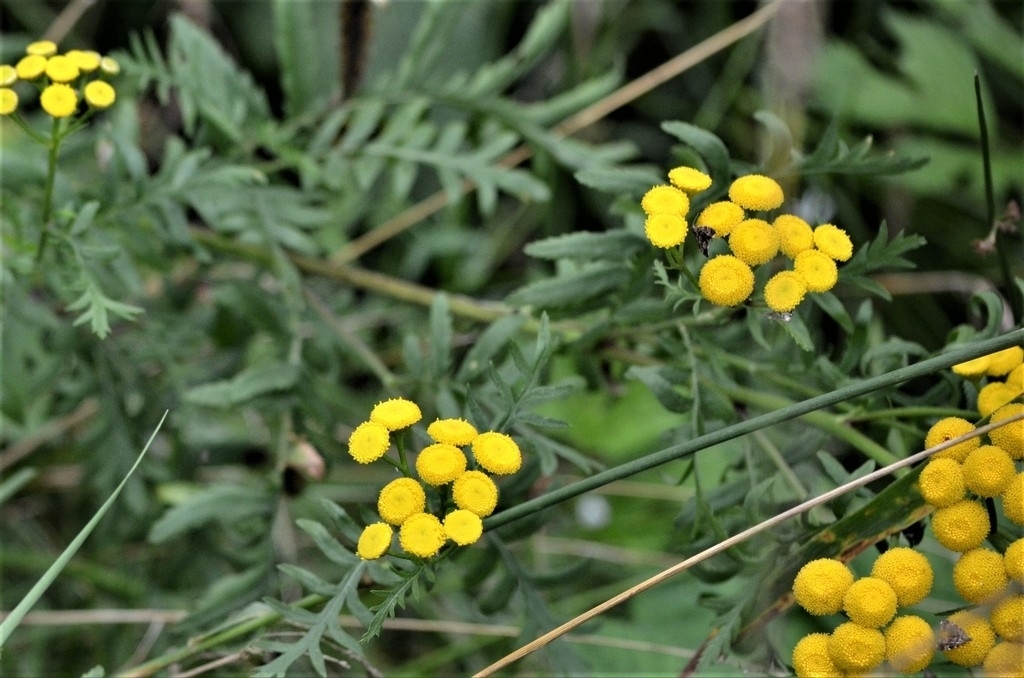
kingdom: Plantae
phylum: Tracheophyta
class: Magnoliopsida
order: Asterales
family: Asteraceae
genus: Tanacetum
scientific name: Tanacetum vulgare
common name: Common tansy
